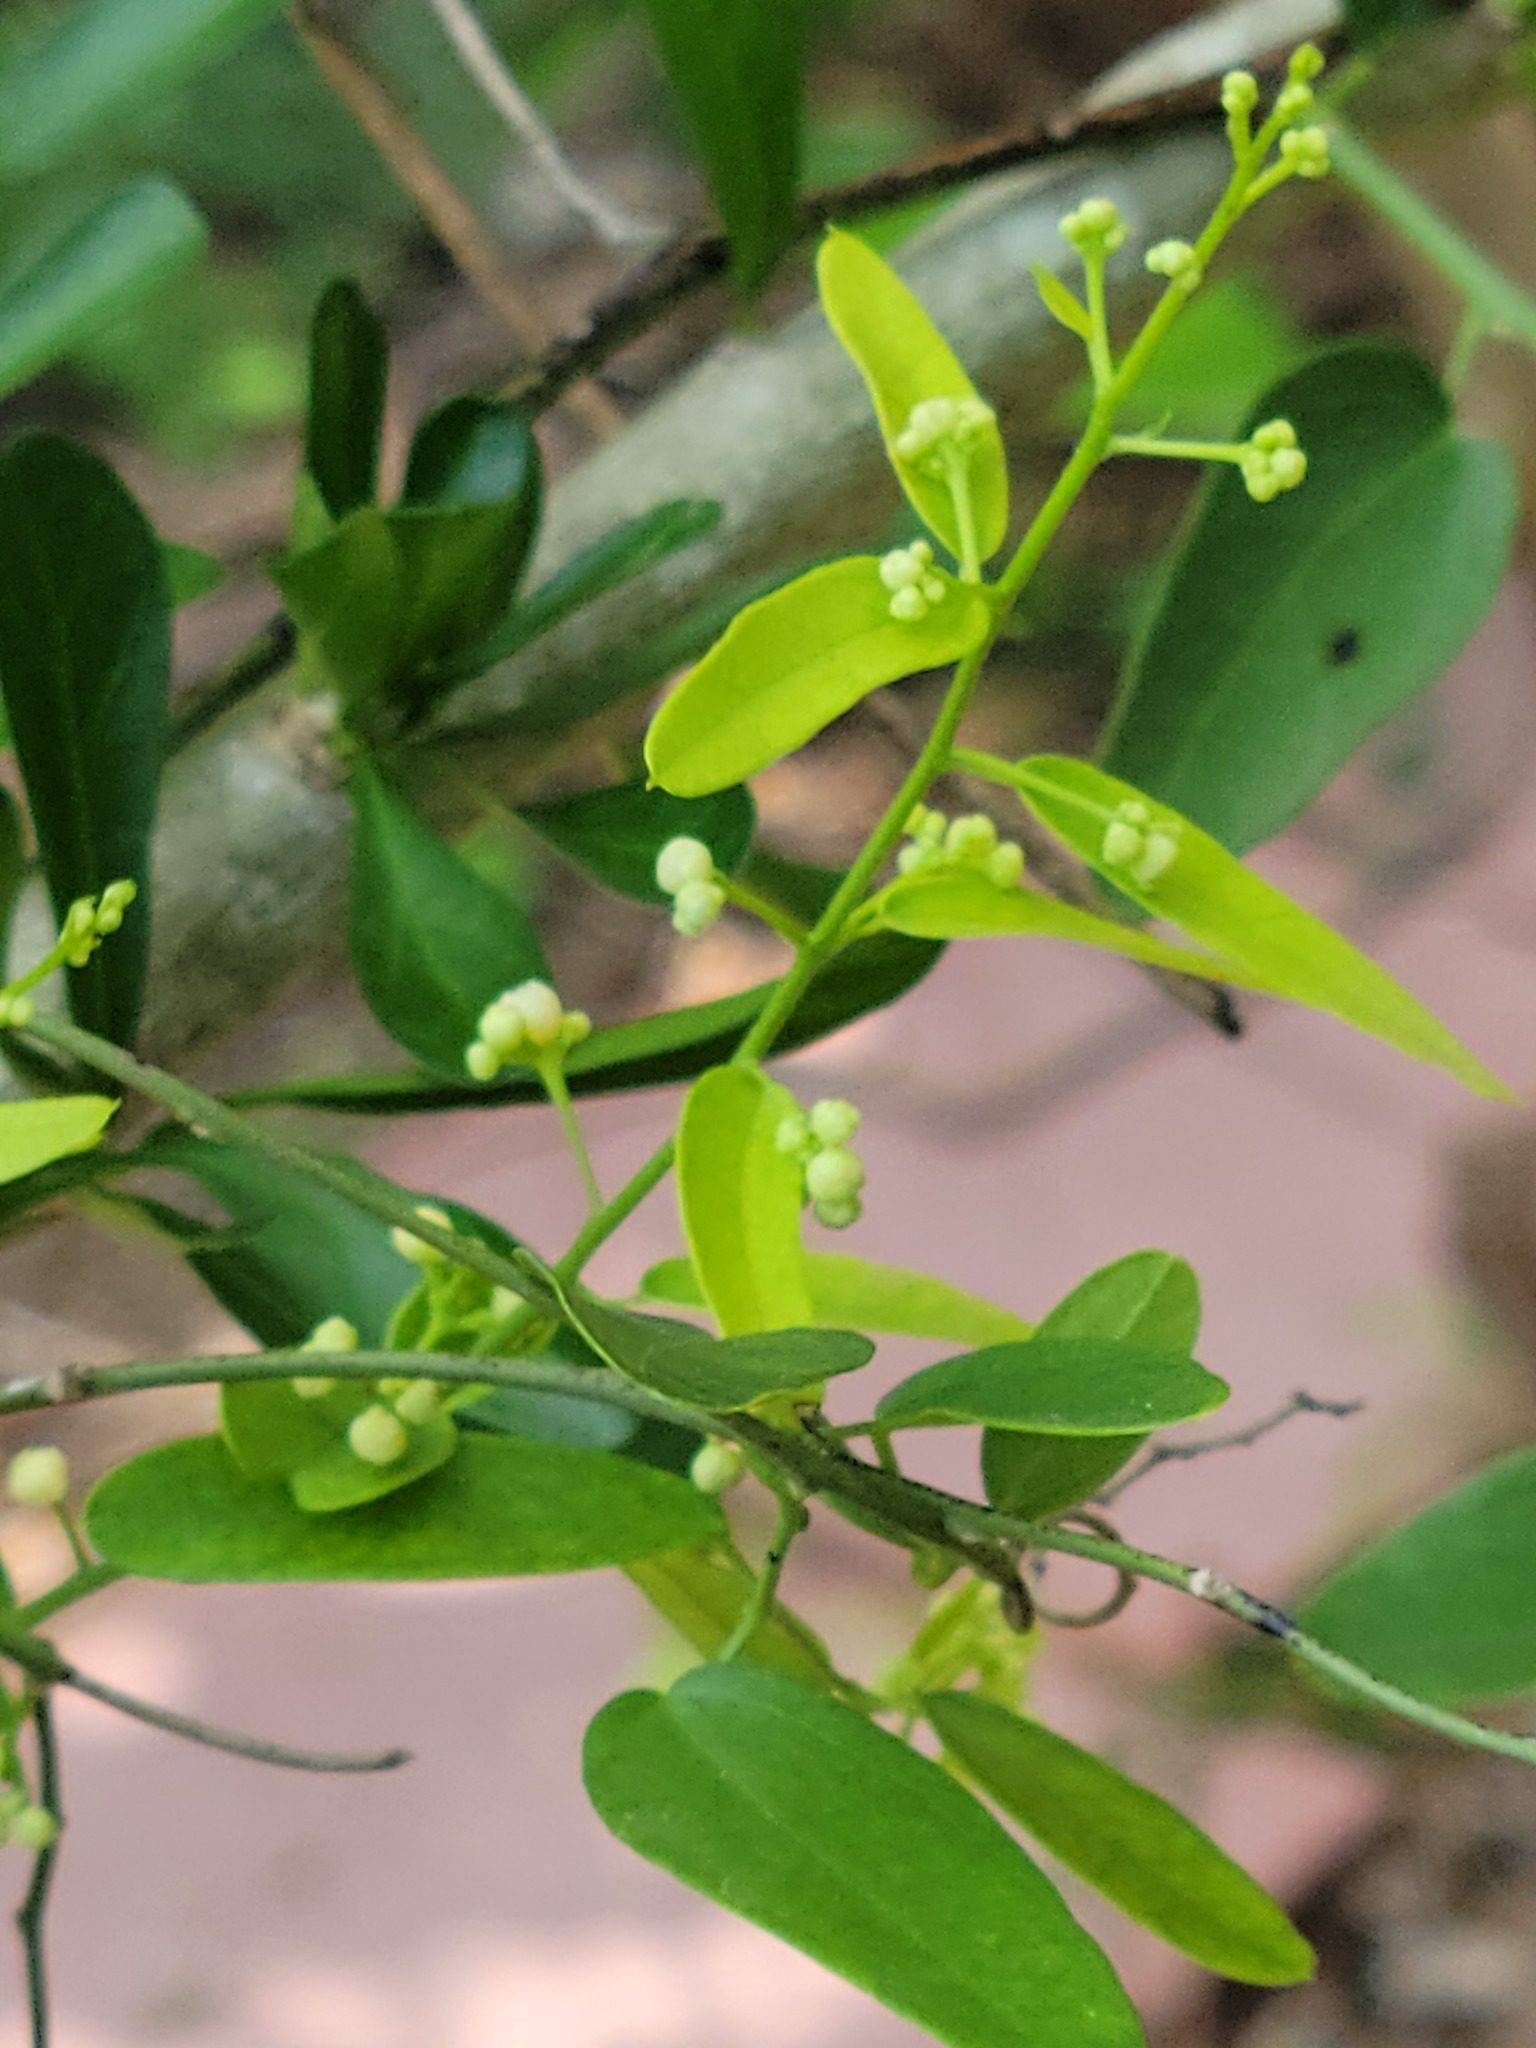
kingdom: Plantae
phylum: Tracheophyta
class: Magnoliopsida
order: Ranunculales
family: Menispermaceae
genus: Cocculus
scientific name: Cocculus diversifolius
